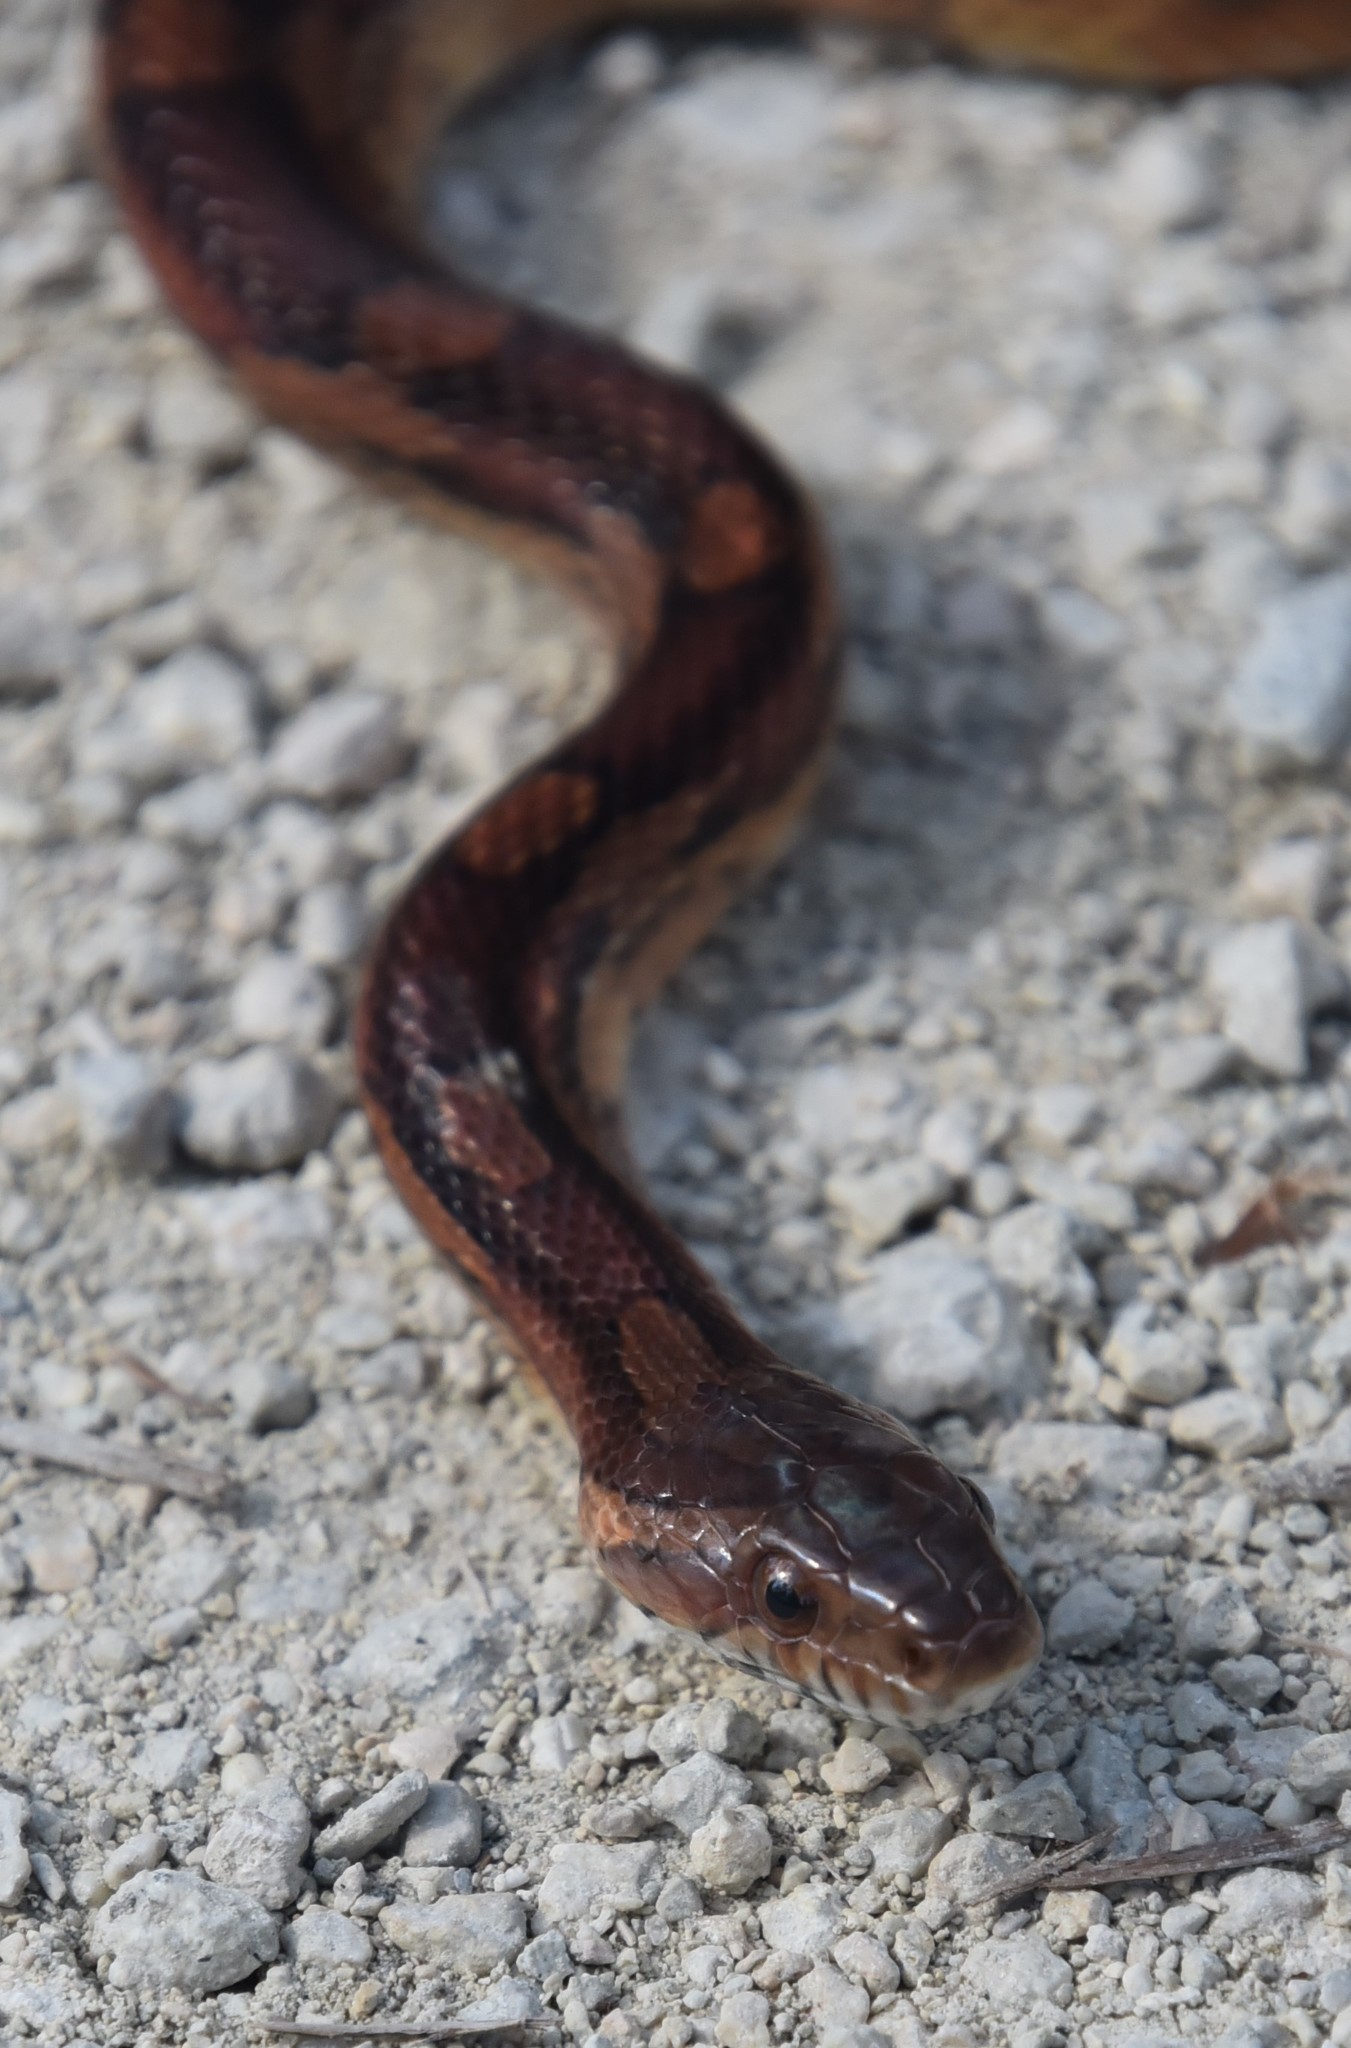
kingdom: Animalia
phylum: Chordata
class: Squamata
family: Colubridae
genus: Pantherophis
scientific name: Pantherophis guttatus
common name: Red cornsnake
